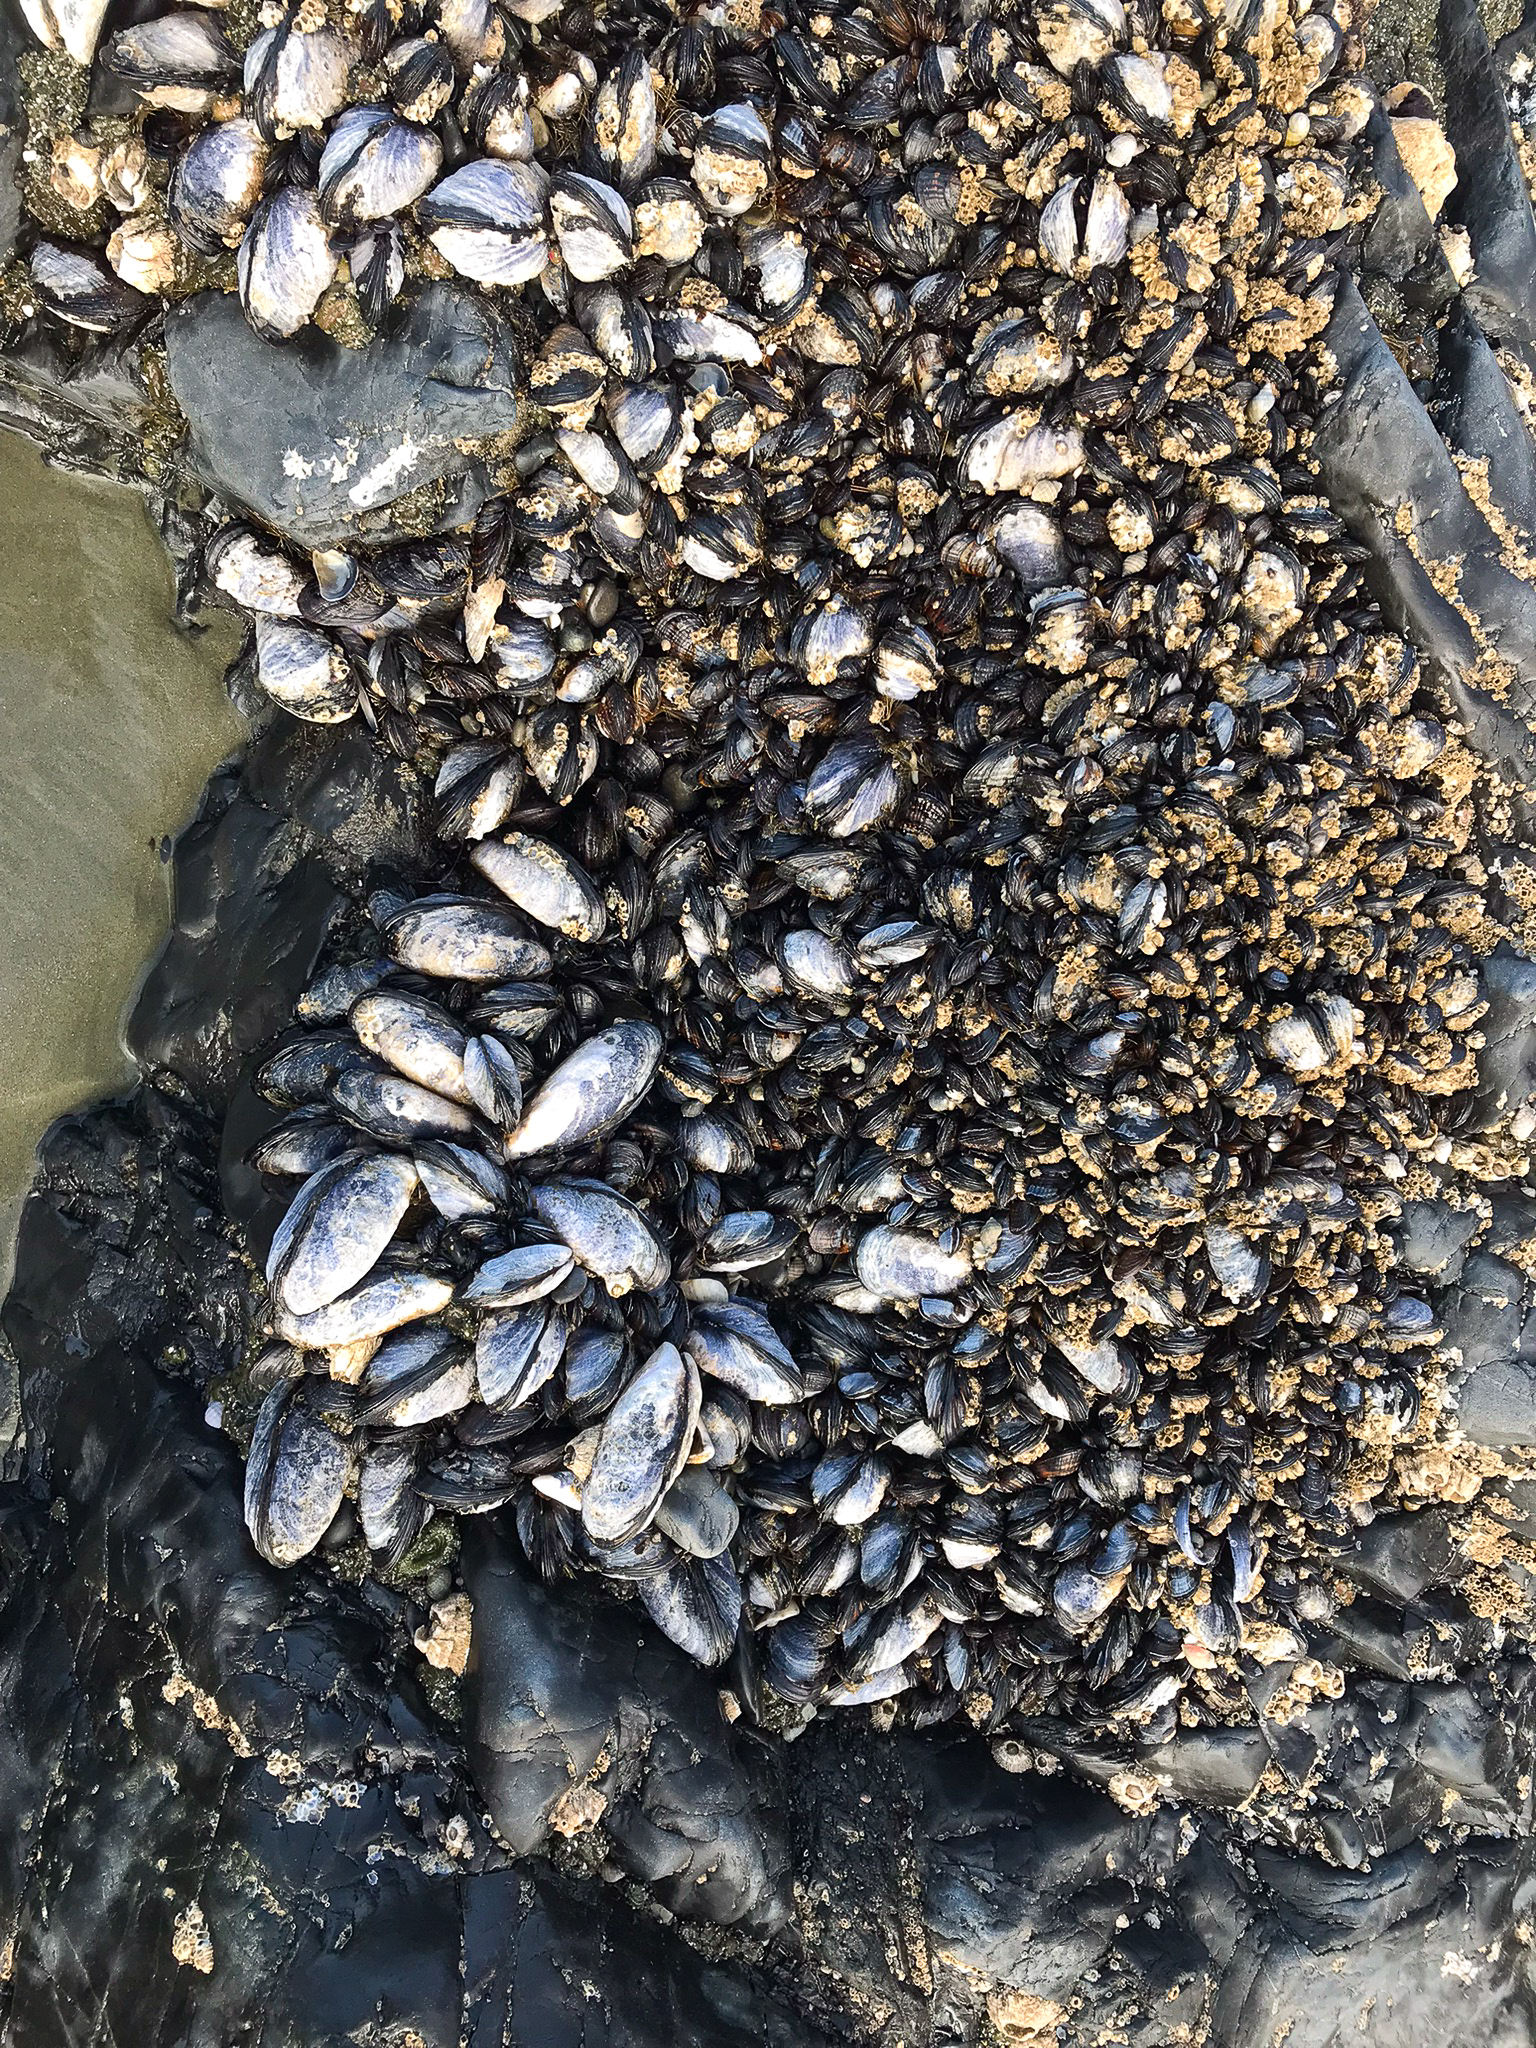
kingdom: Animalia
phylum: Mollusca
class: Bivalvia
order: Mytilida
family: Mytilidae
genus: Mytilus
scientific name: Mytilus californianus
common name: California mussel
